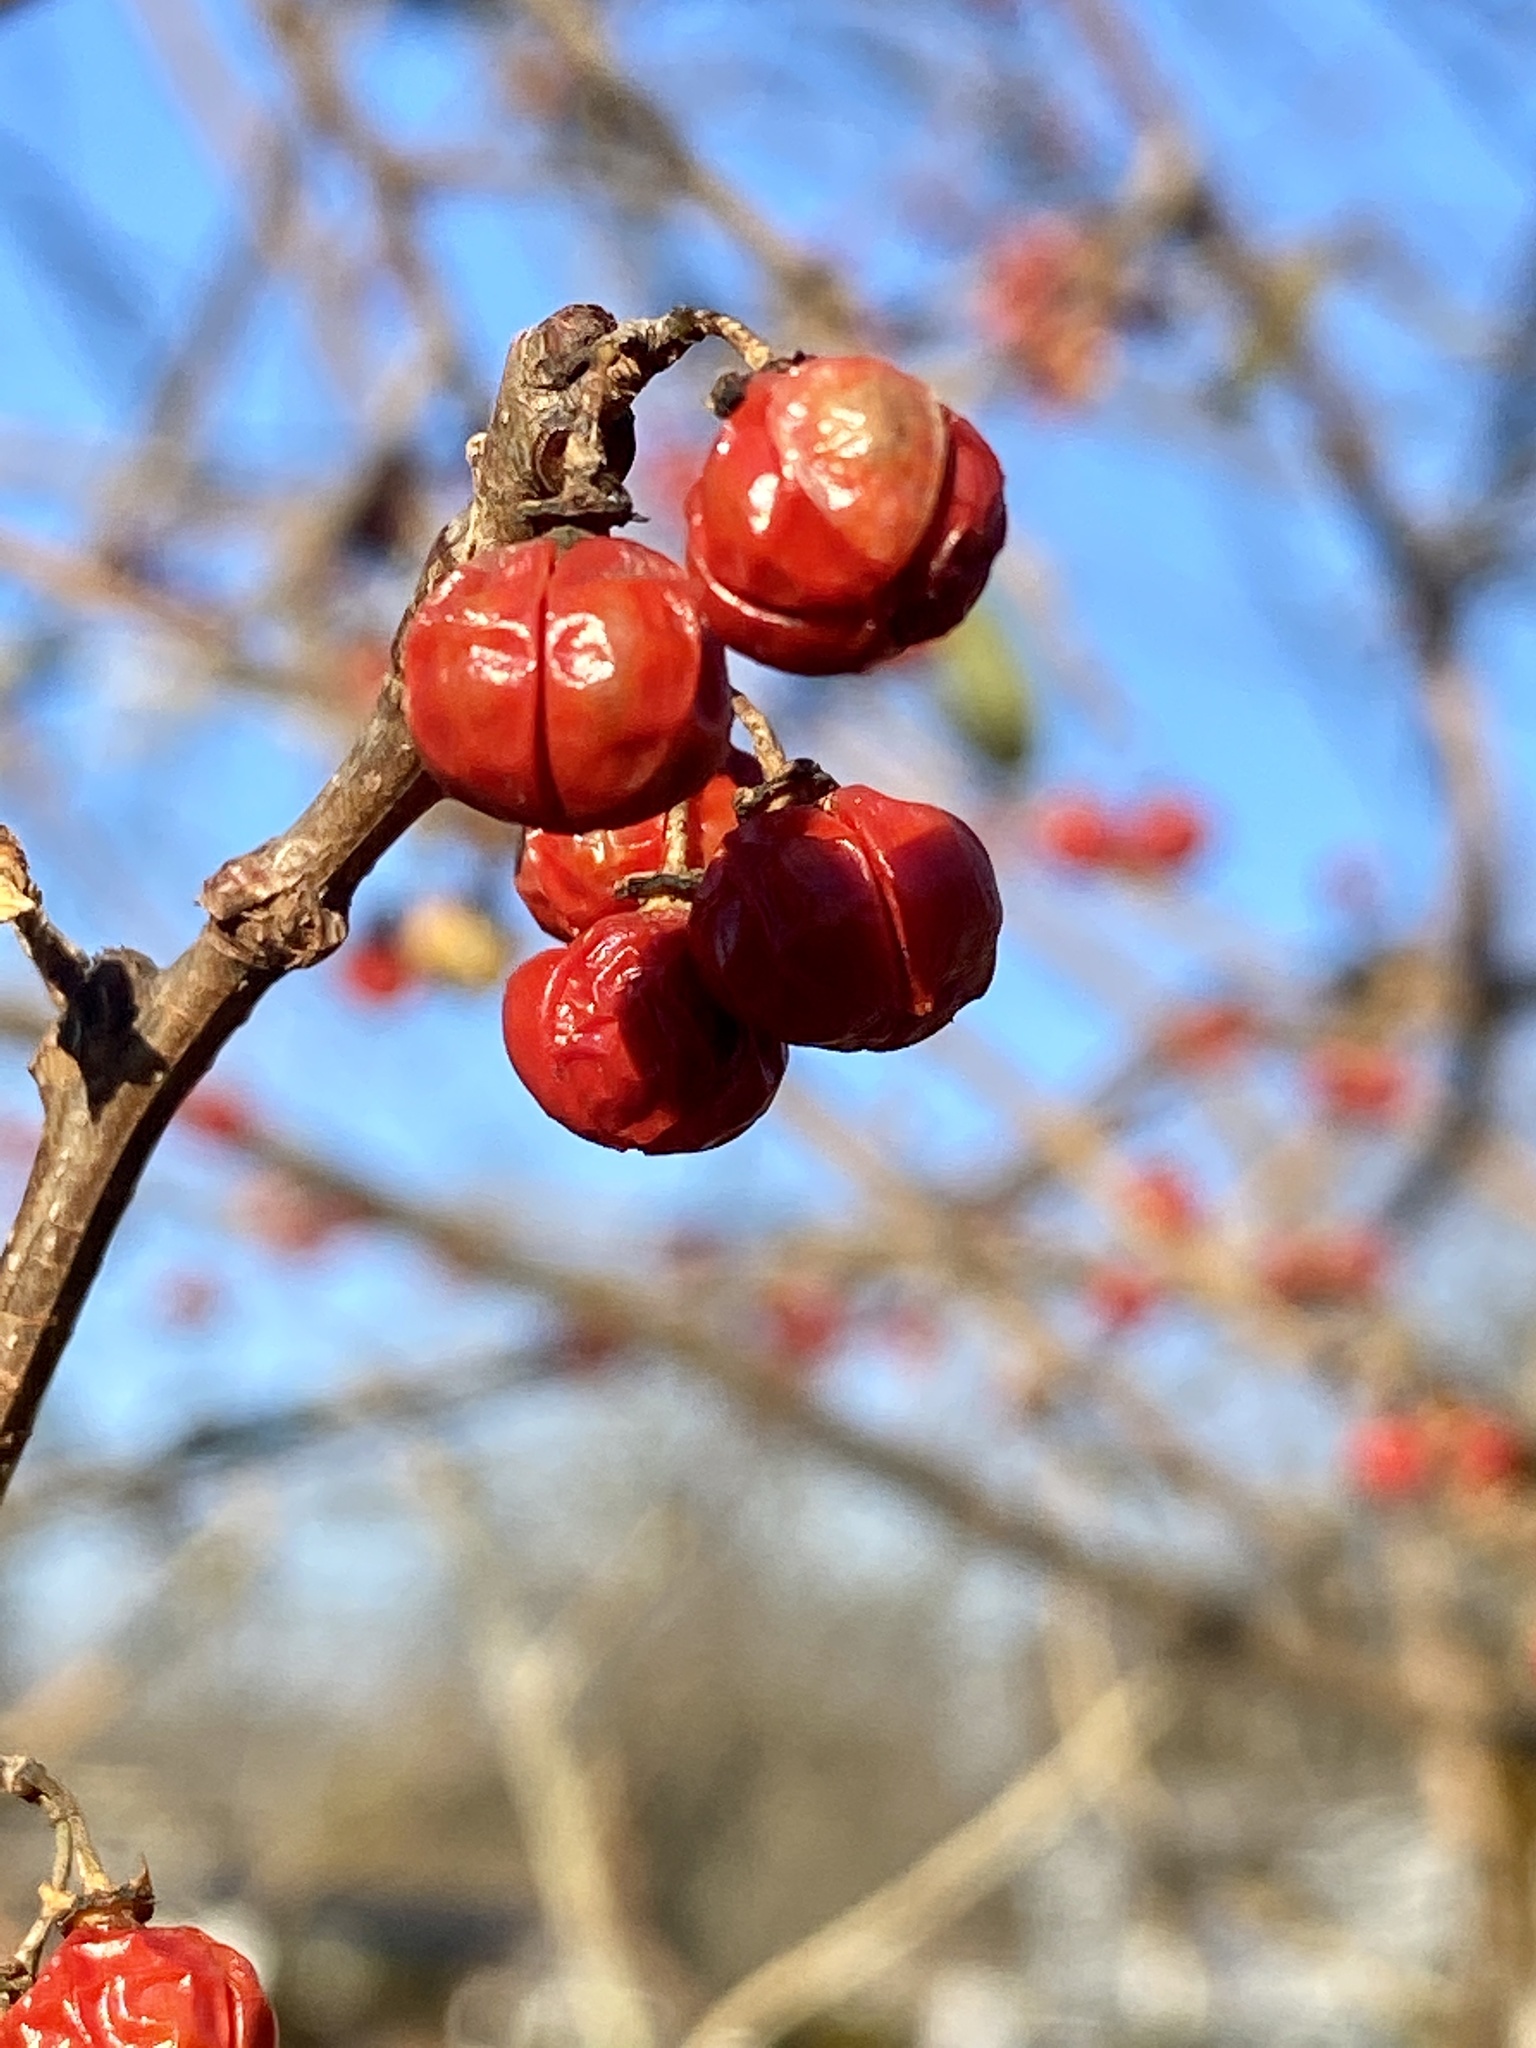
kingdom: Plantae
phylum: Tracheophyta
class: Magnoliopsida
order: Celastrales
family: Celastraceae
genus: Celastrus
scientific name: Celastrus orbiculatus
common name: Oriental bittersweet
